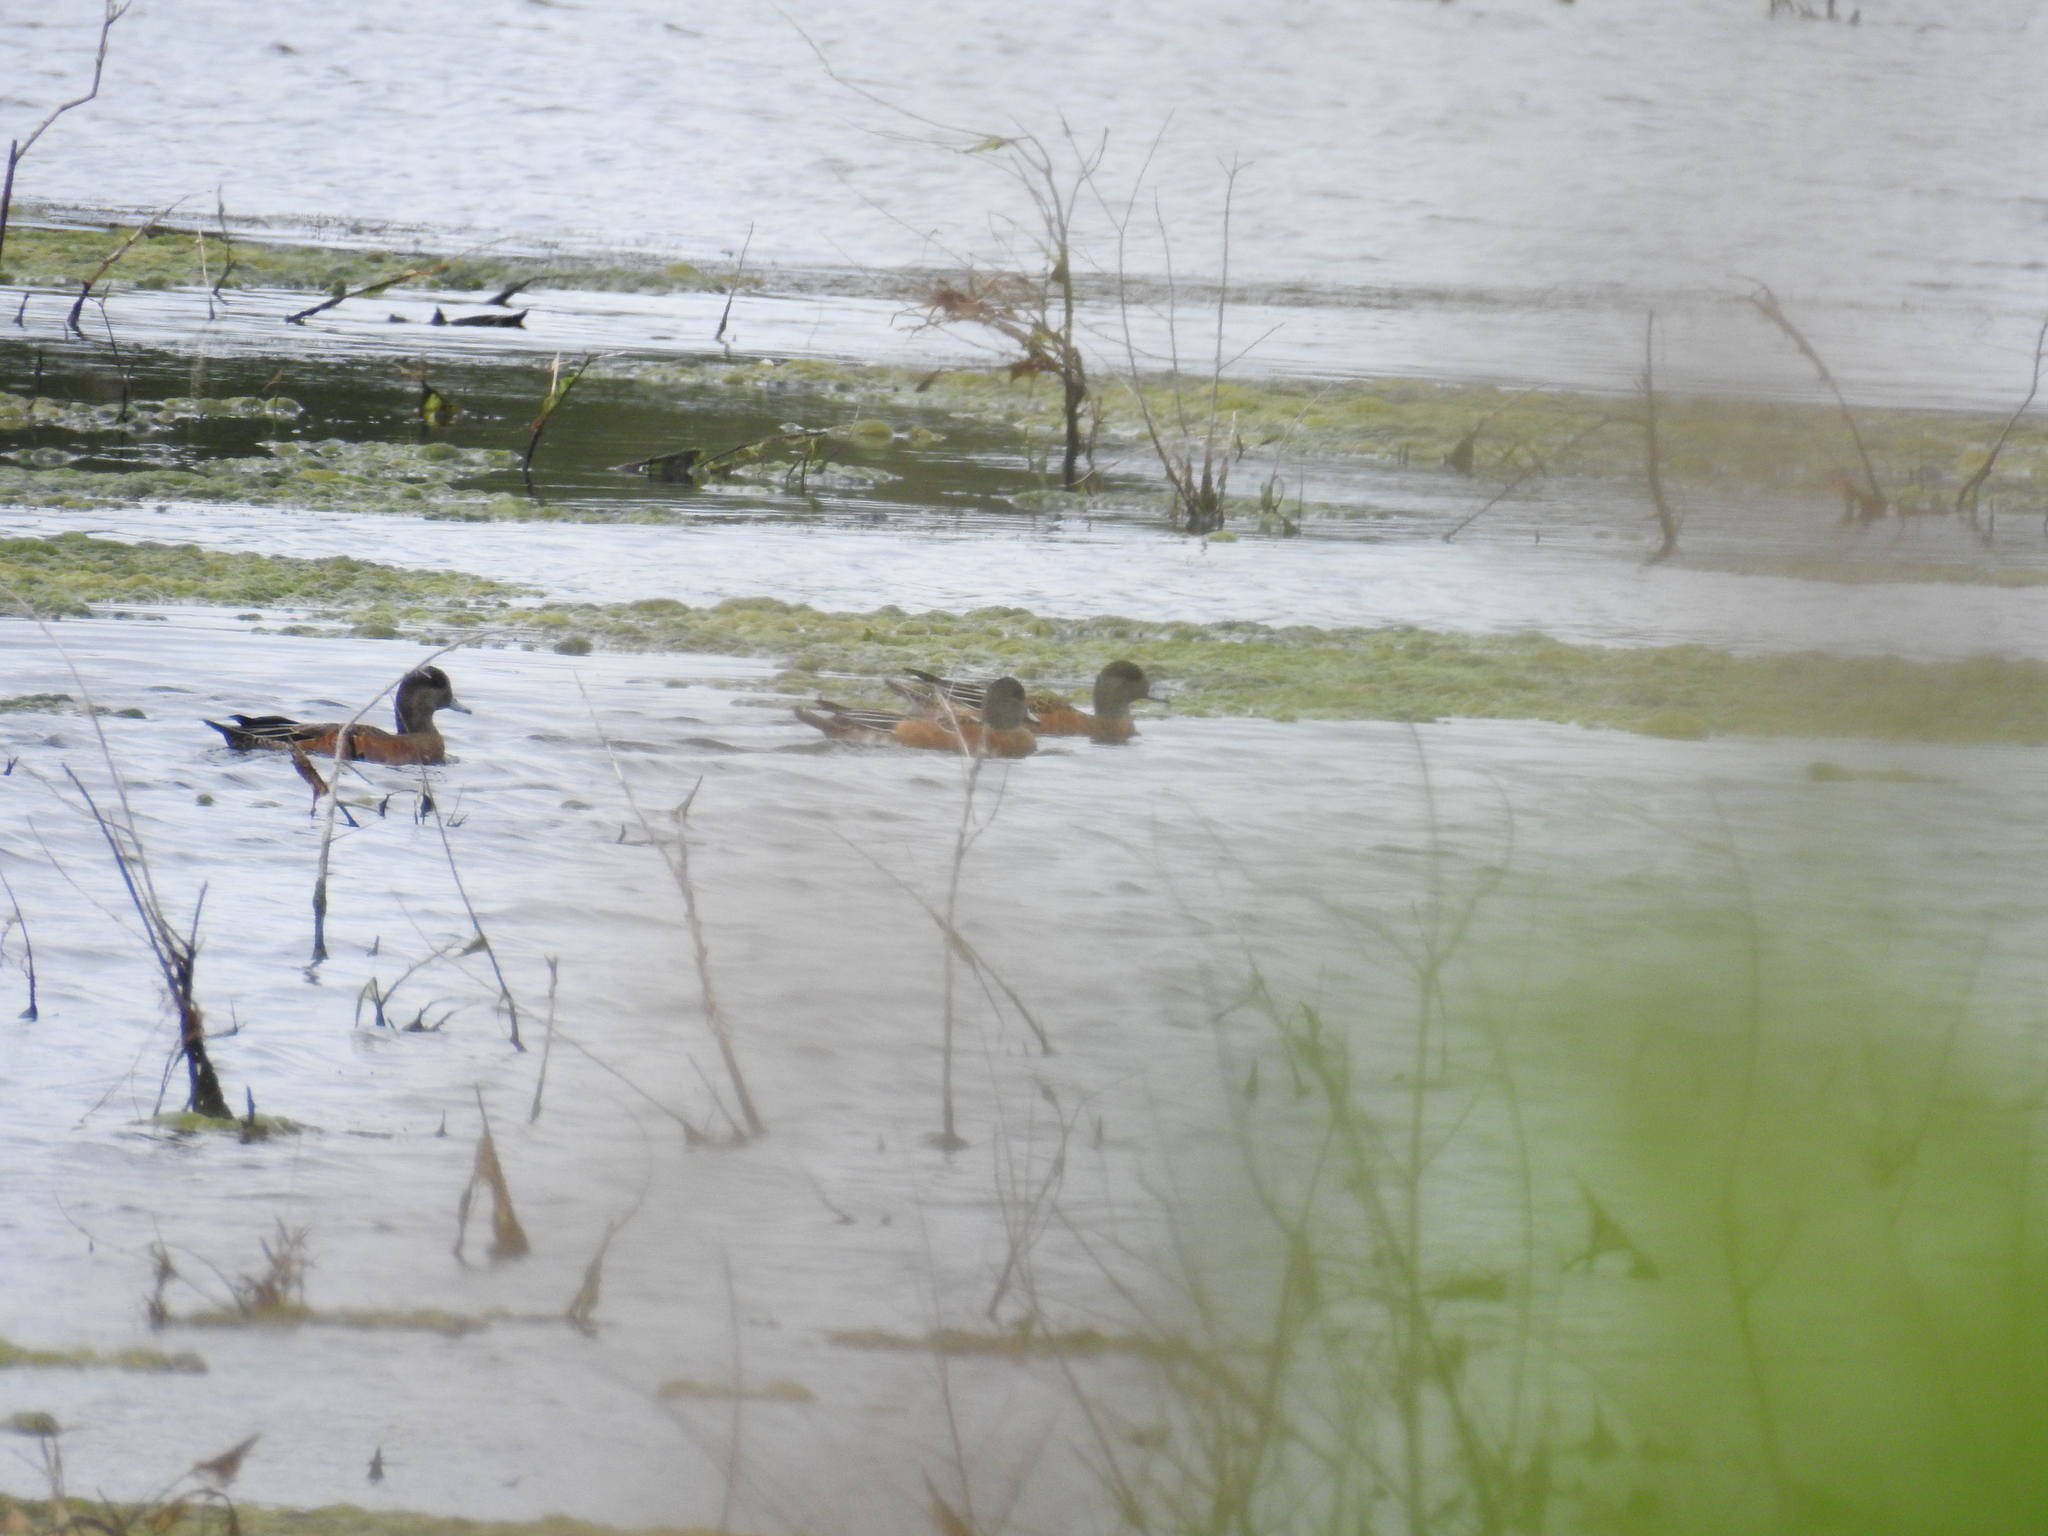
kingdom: Animalia
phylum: Chordata
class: Aves
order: Anseriformes
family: Anatidae
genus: Mareca
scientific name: Mareca americana
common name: American wigeon
